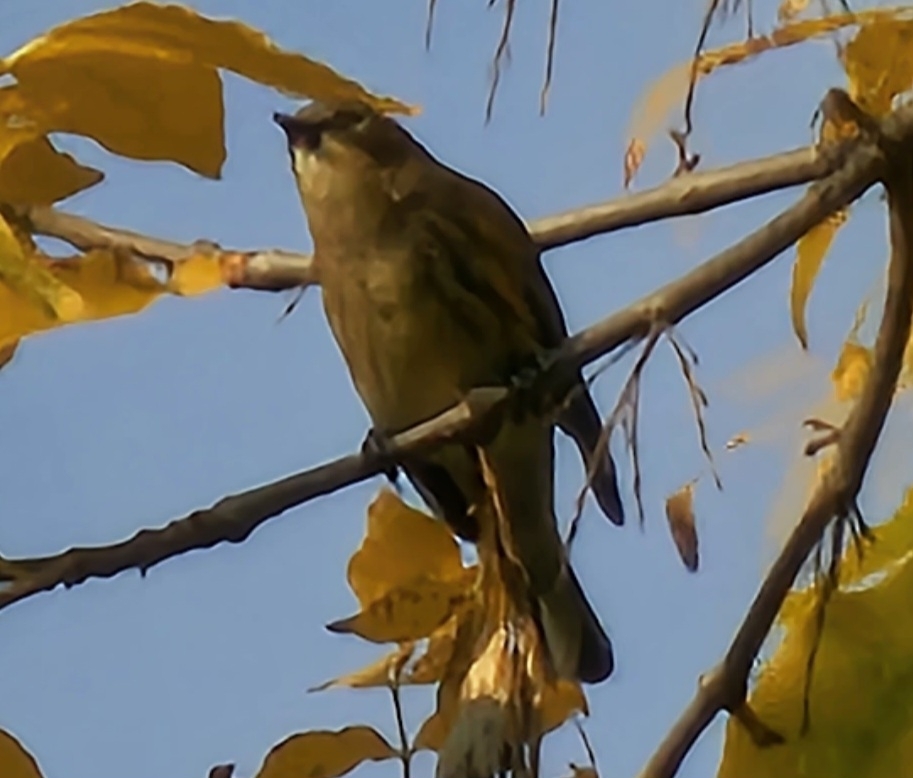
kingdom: Animalia
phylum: Chordata
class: Aves
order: Passeriformes
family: Parulidae
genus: Setophaga
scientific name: Setophaga coronata
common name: Myrtle warbler
